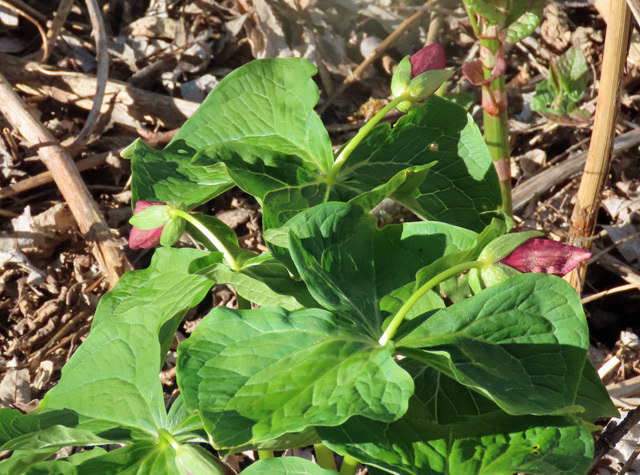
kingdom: Plantae
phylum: Tracheophyta
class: Liliopsida
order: Liliales
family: Melanthiaceae
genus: Trillium
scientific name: Trillium erectum
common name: Purple trillium
